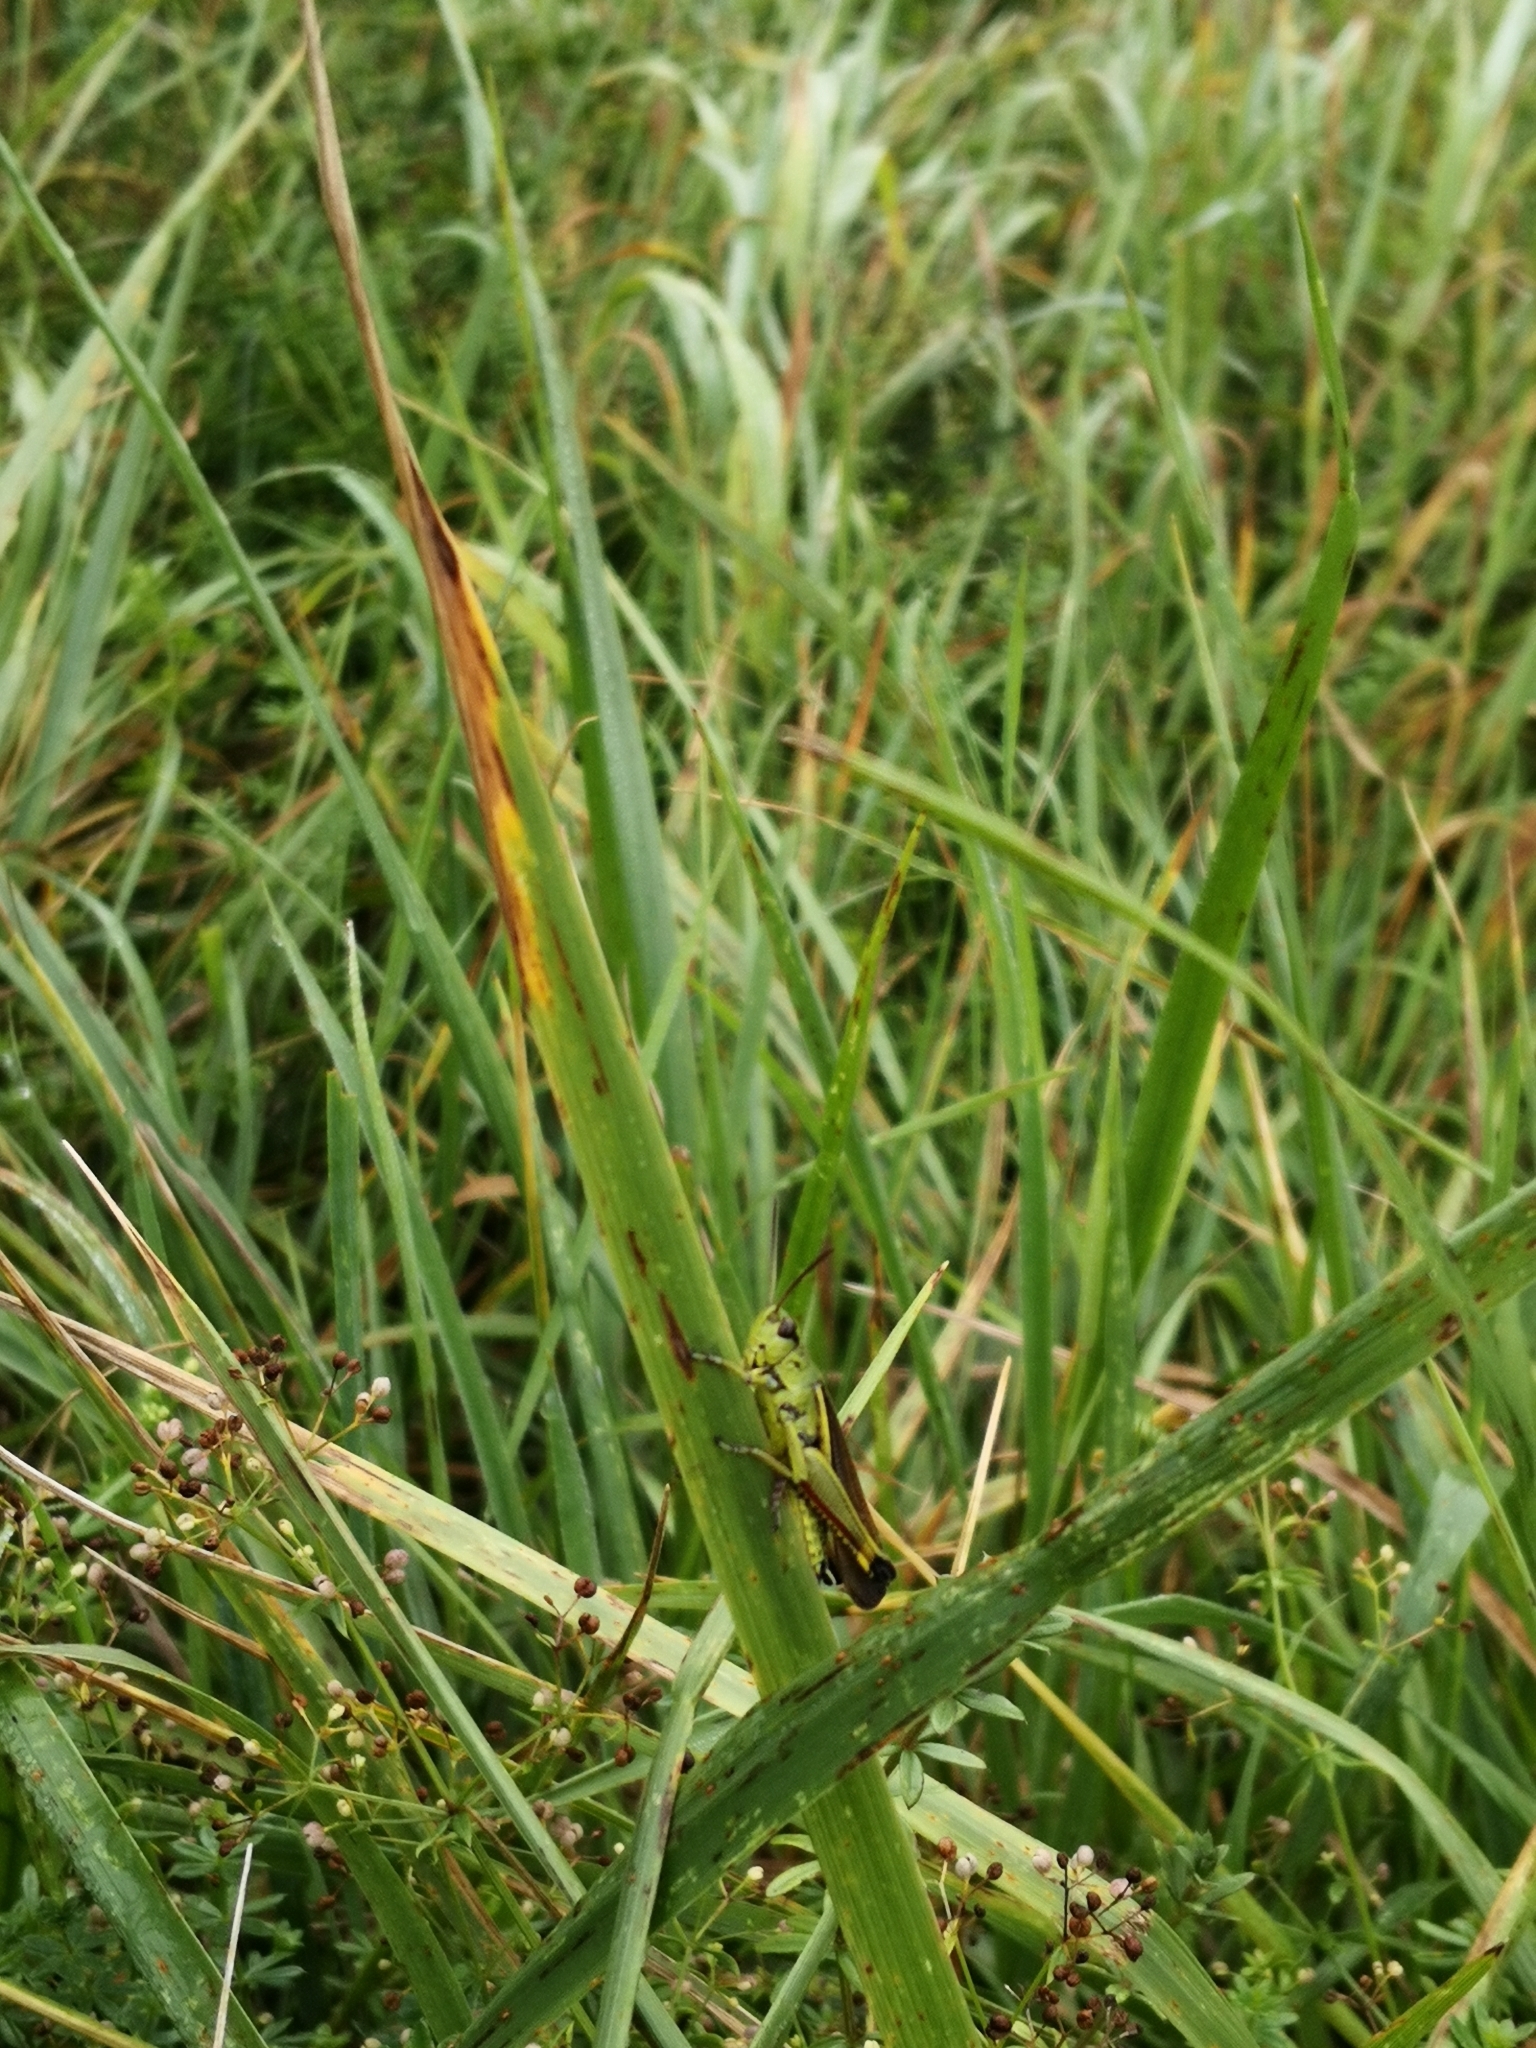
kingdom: Animalia
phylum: Arthropoda
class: Insecta
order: Orthoptera
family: Acrididae
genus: Stethophyma
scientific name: Stethophyma grossum
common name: Large marsh grasshopper
